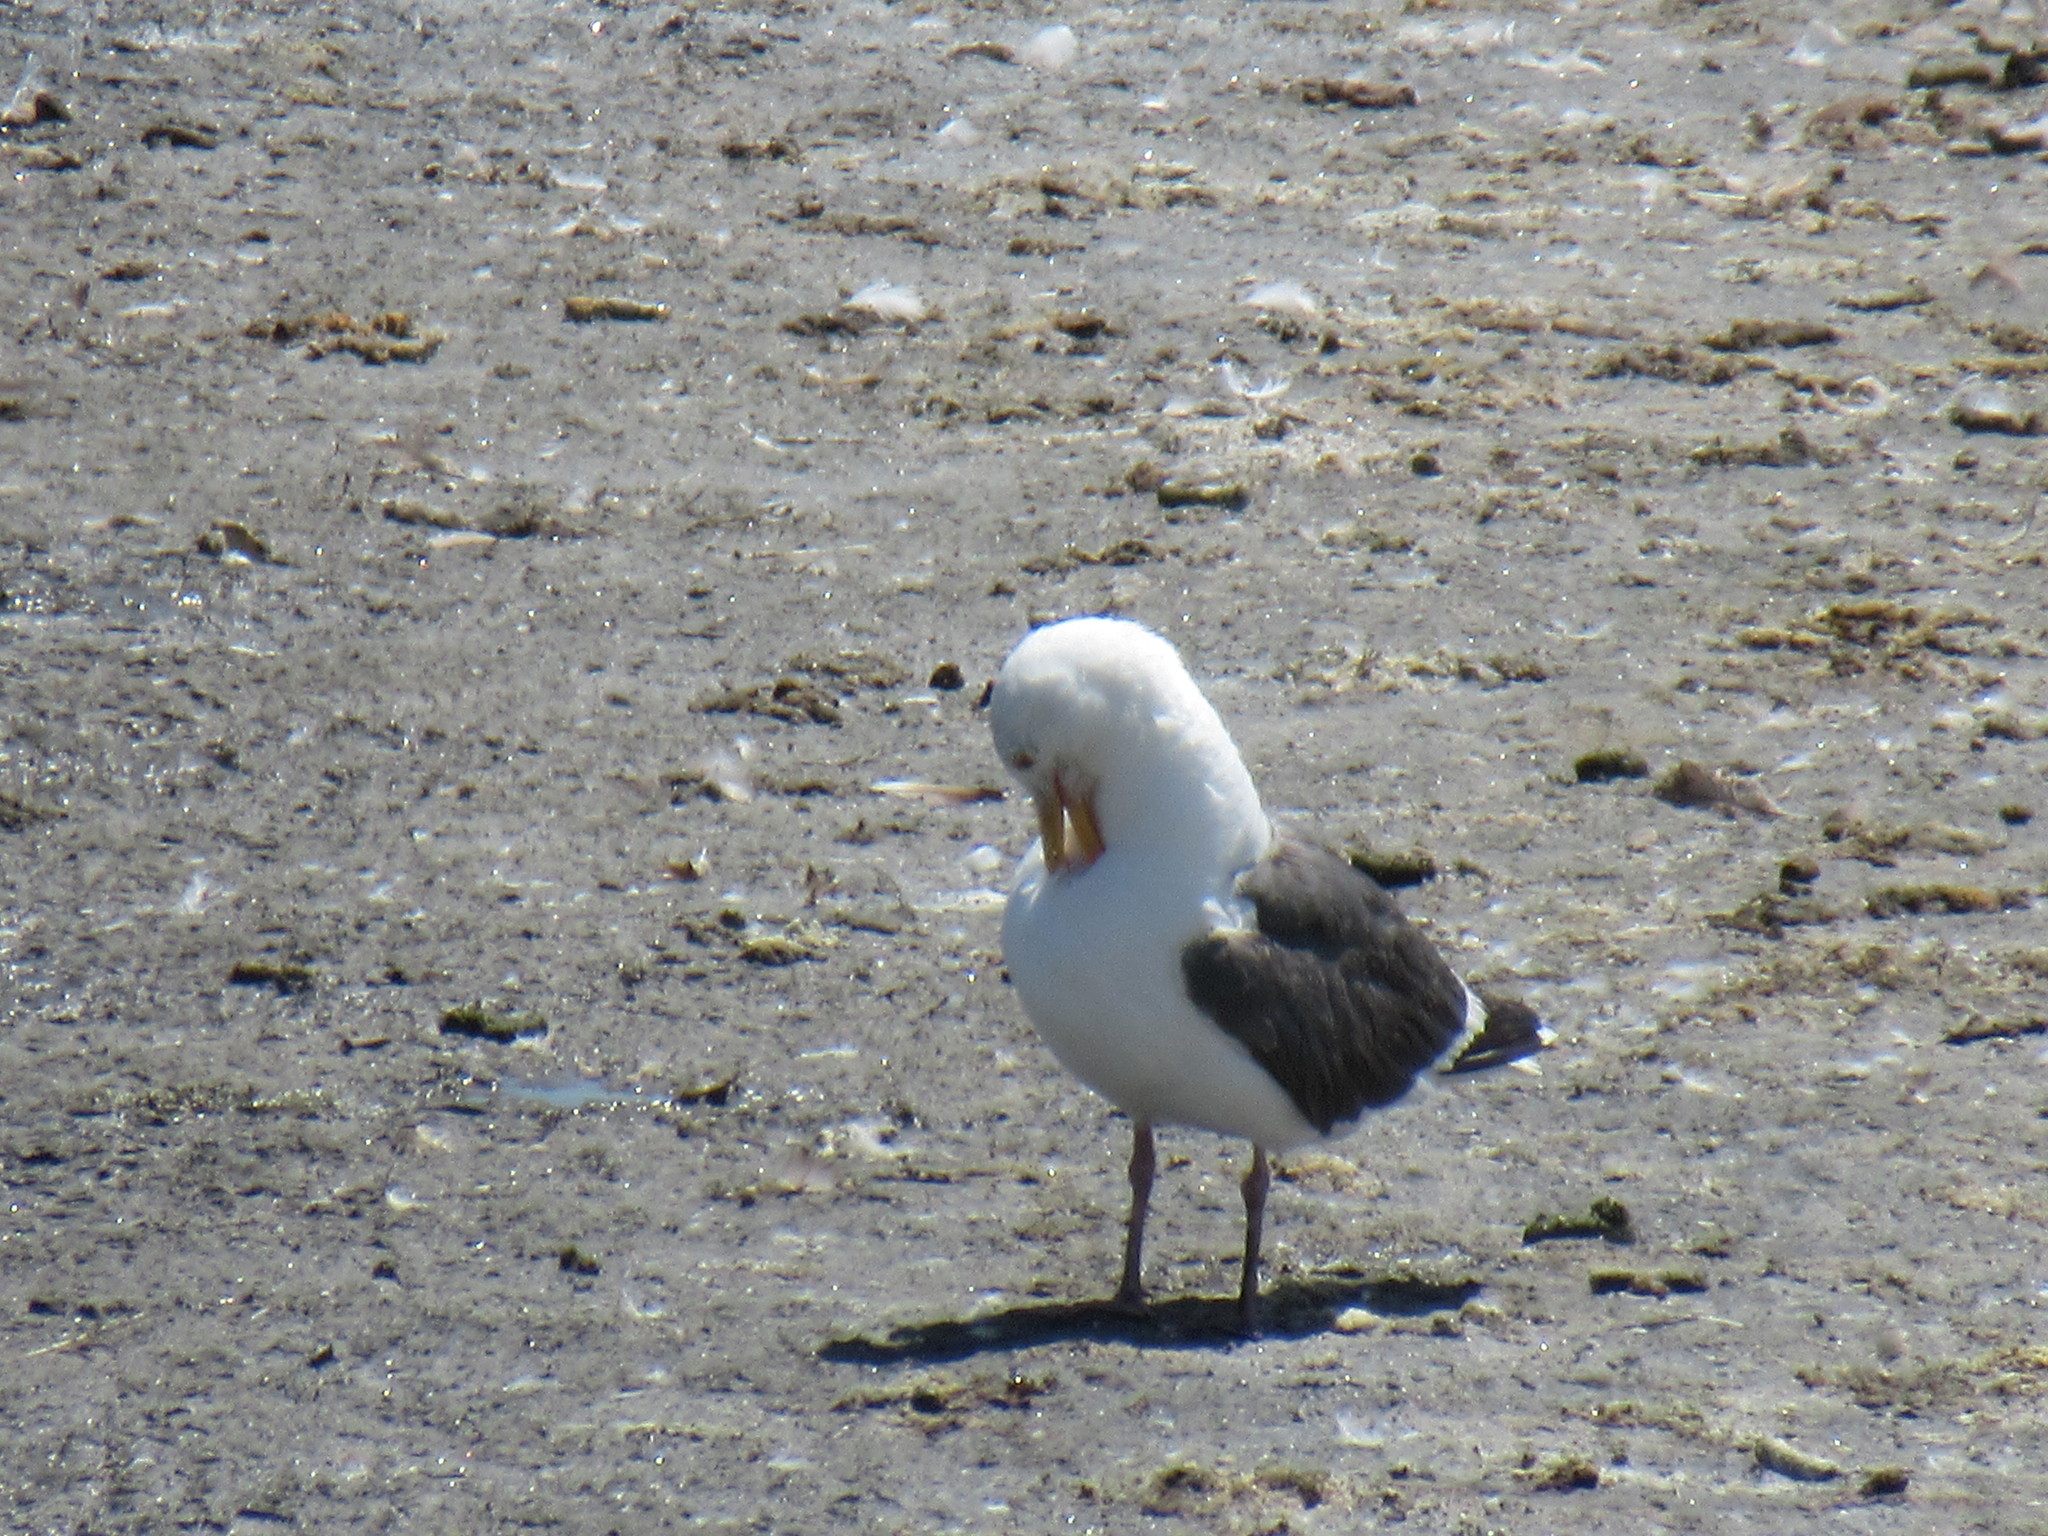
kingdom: Animalia
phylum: Chordata
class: Aves
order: Charadriiformes
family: Laridae
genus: Larus
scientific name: Larus occidentalis
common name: Western gull
